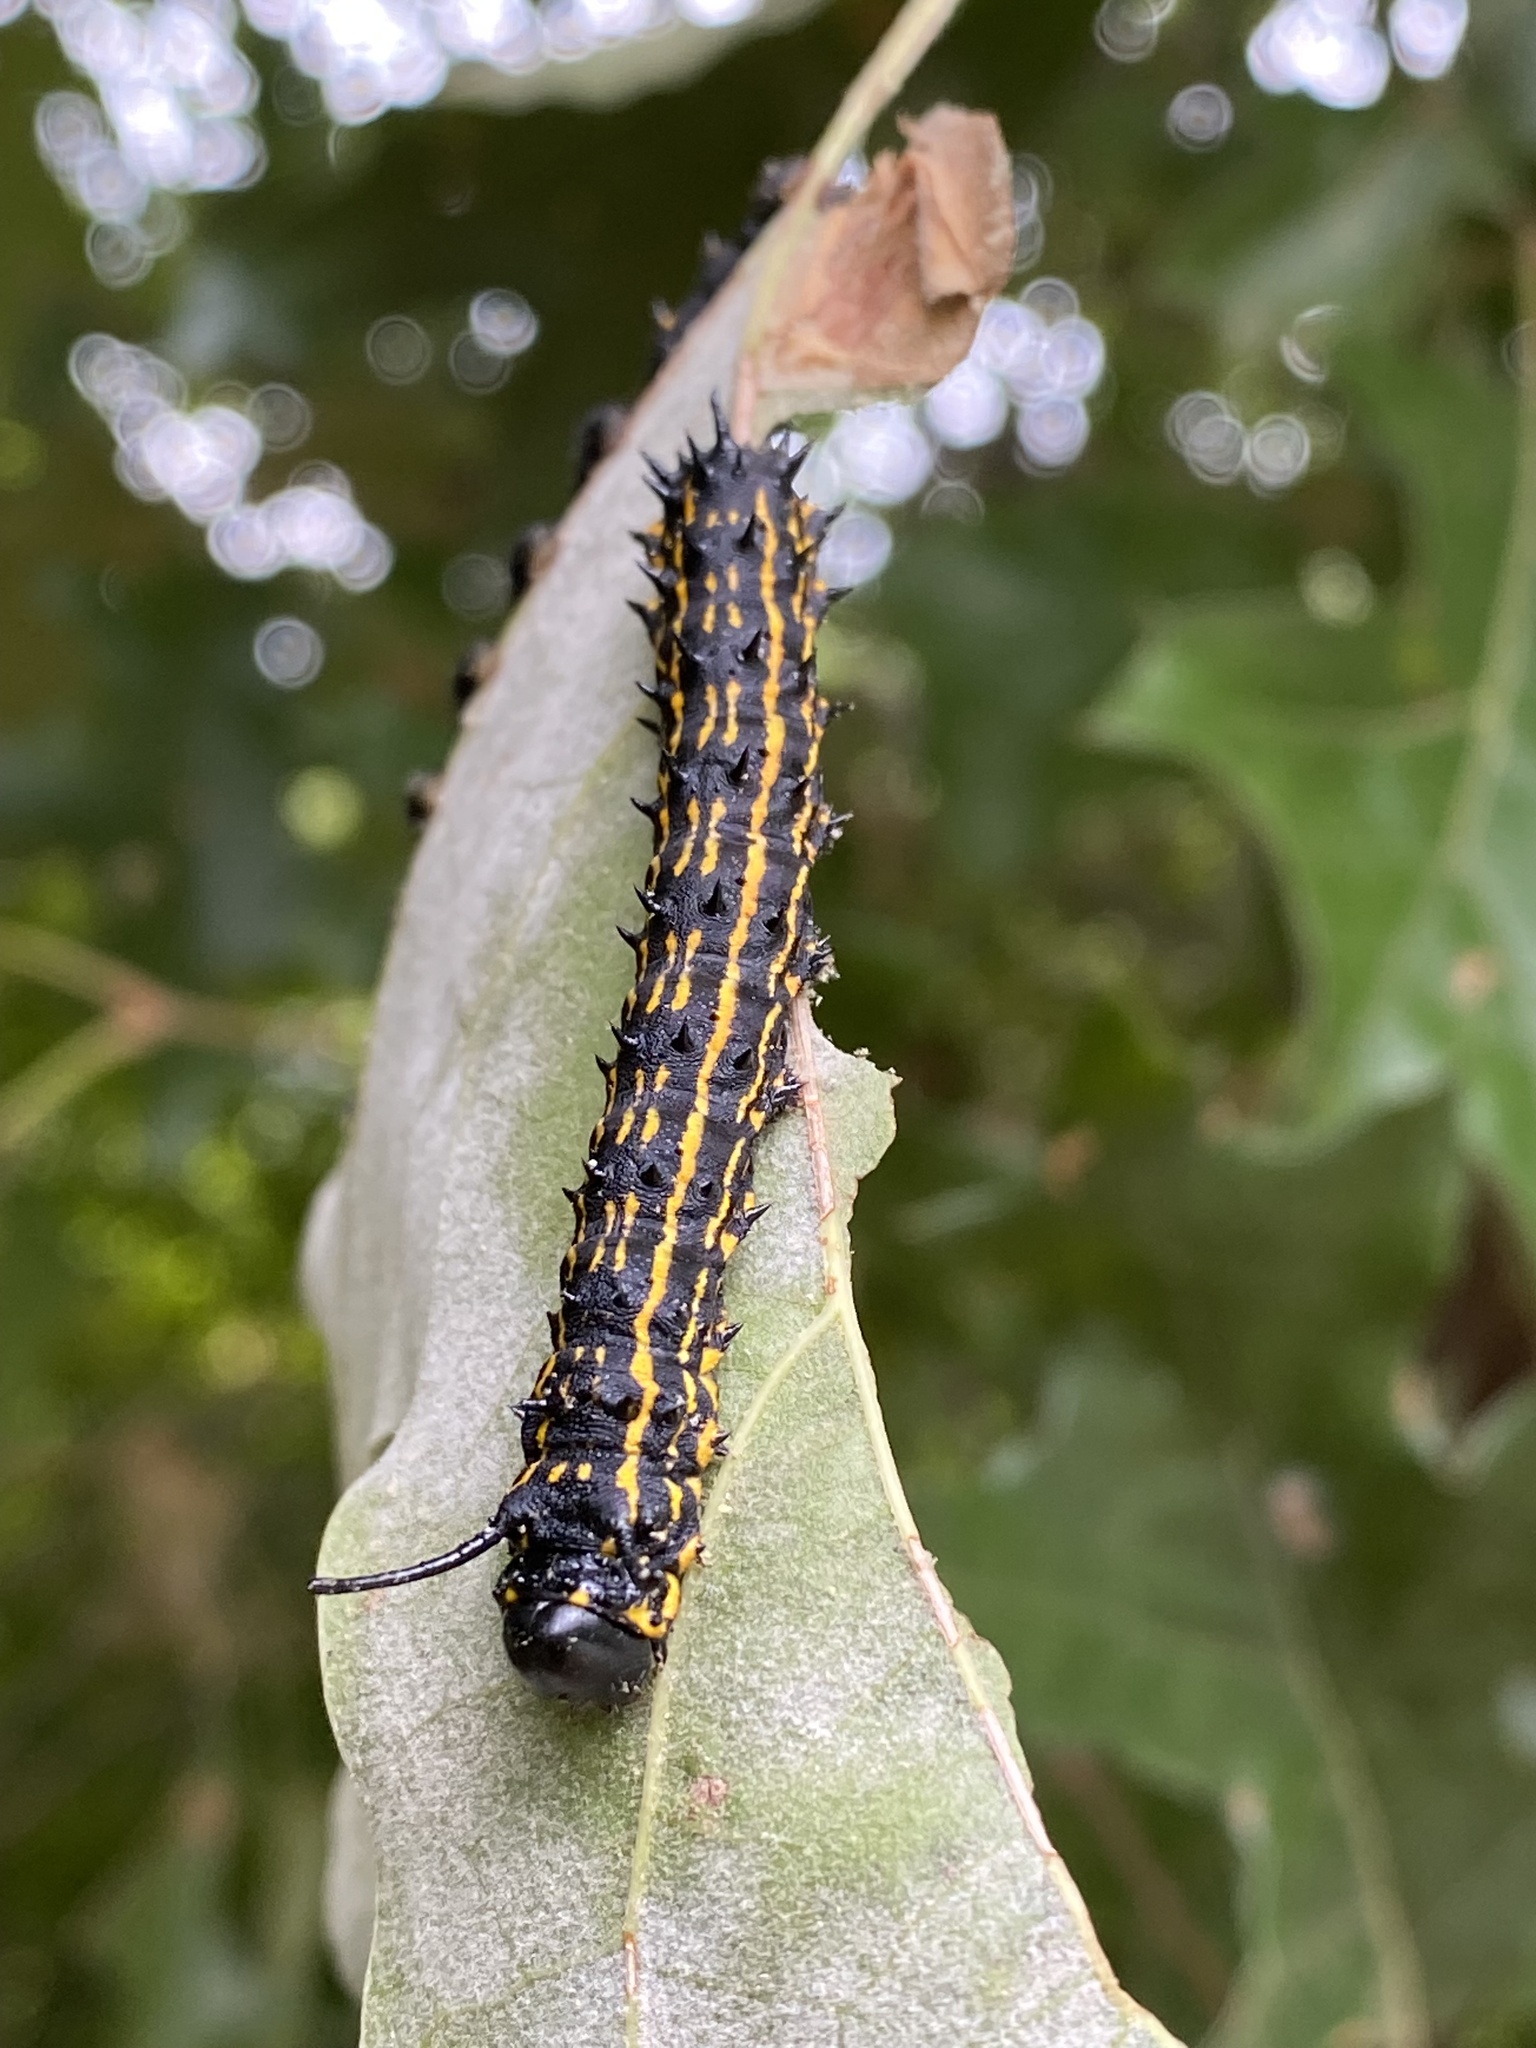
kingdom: Animalia
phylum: Arthropoda
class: Insecta
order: Lepidoptera
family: Saturniidae
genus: Anisota
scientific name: Anisota senatoria
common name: Orange-striped oakworm moth
